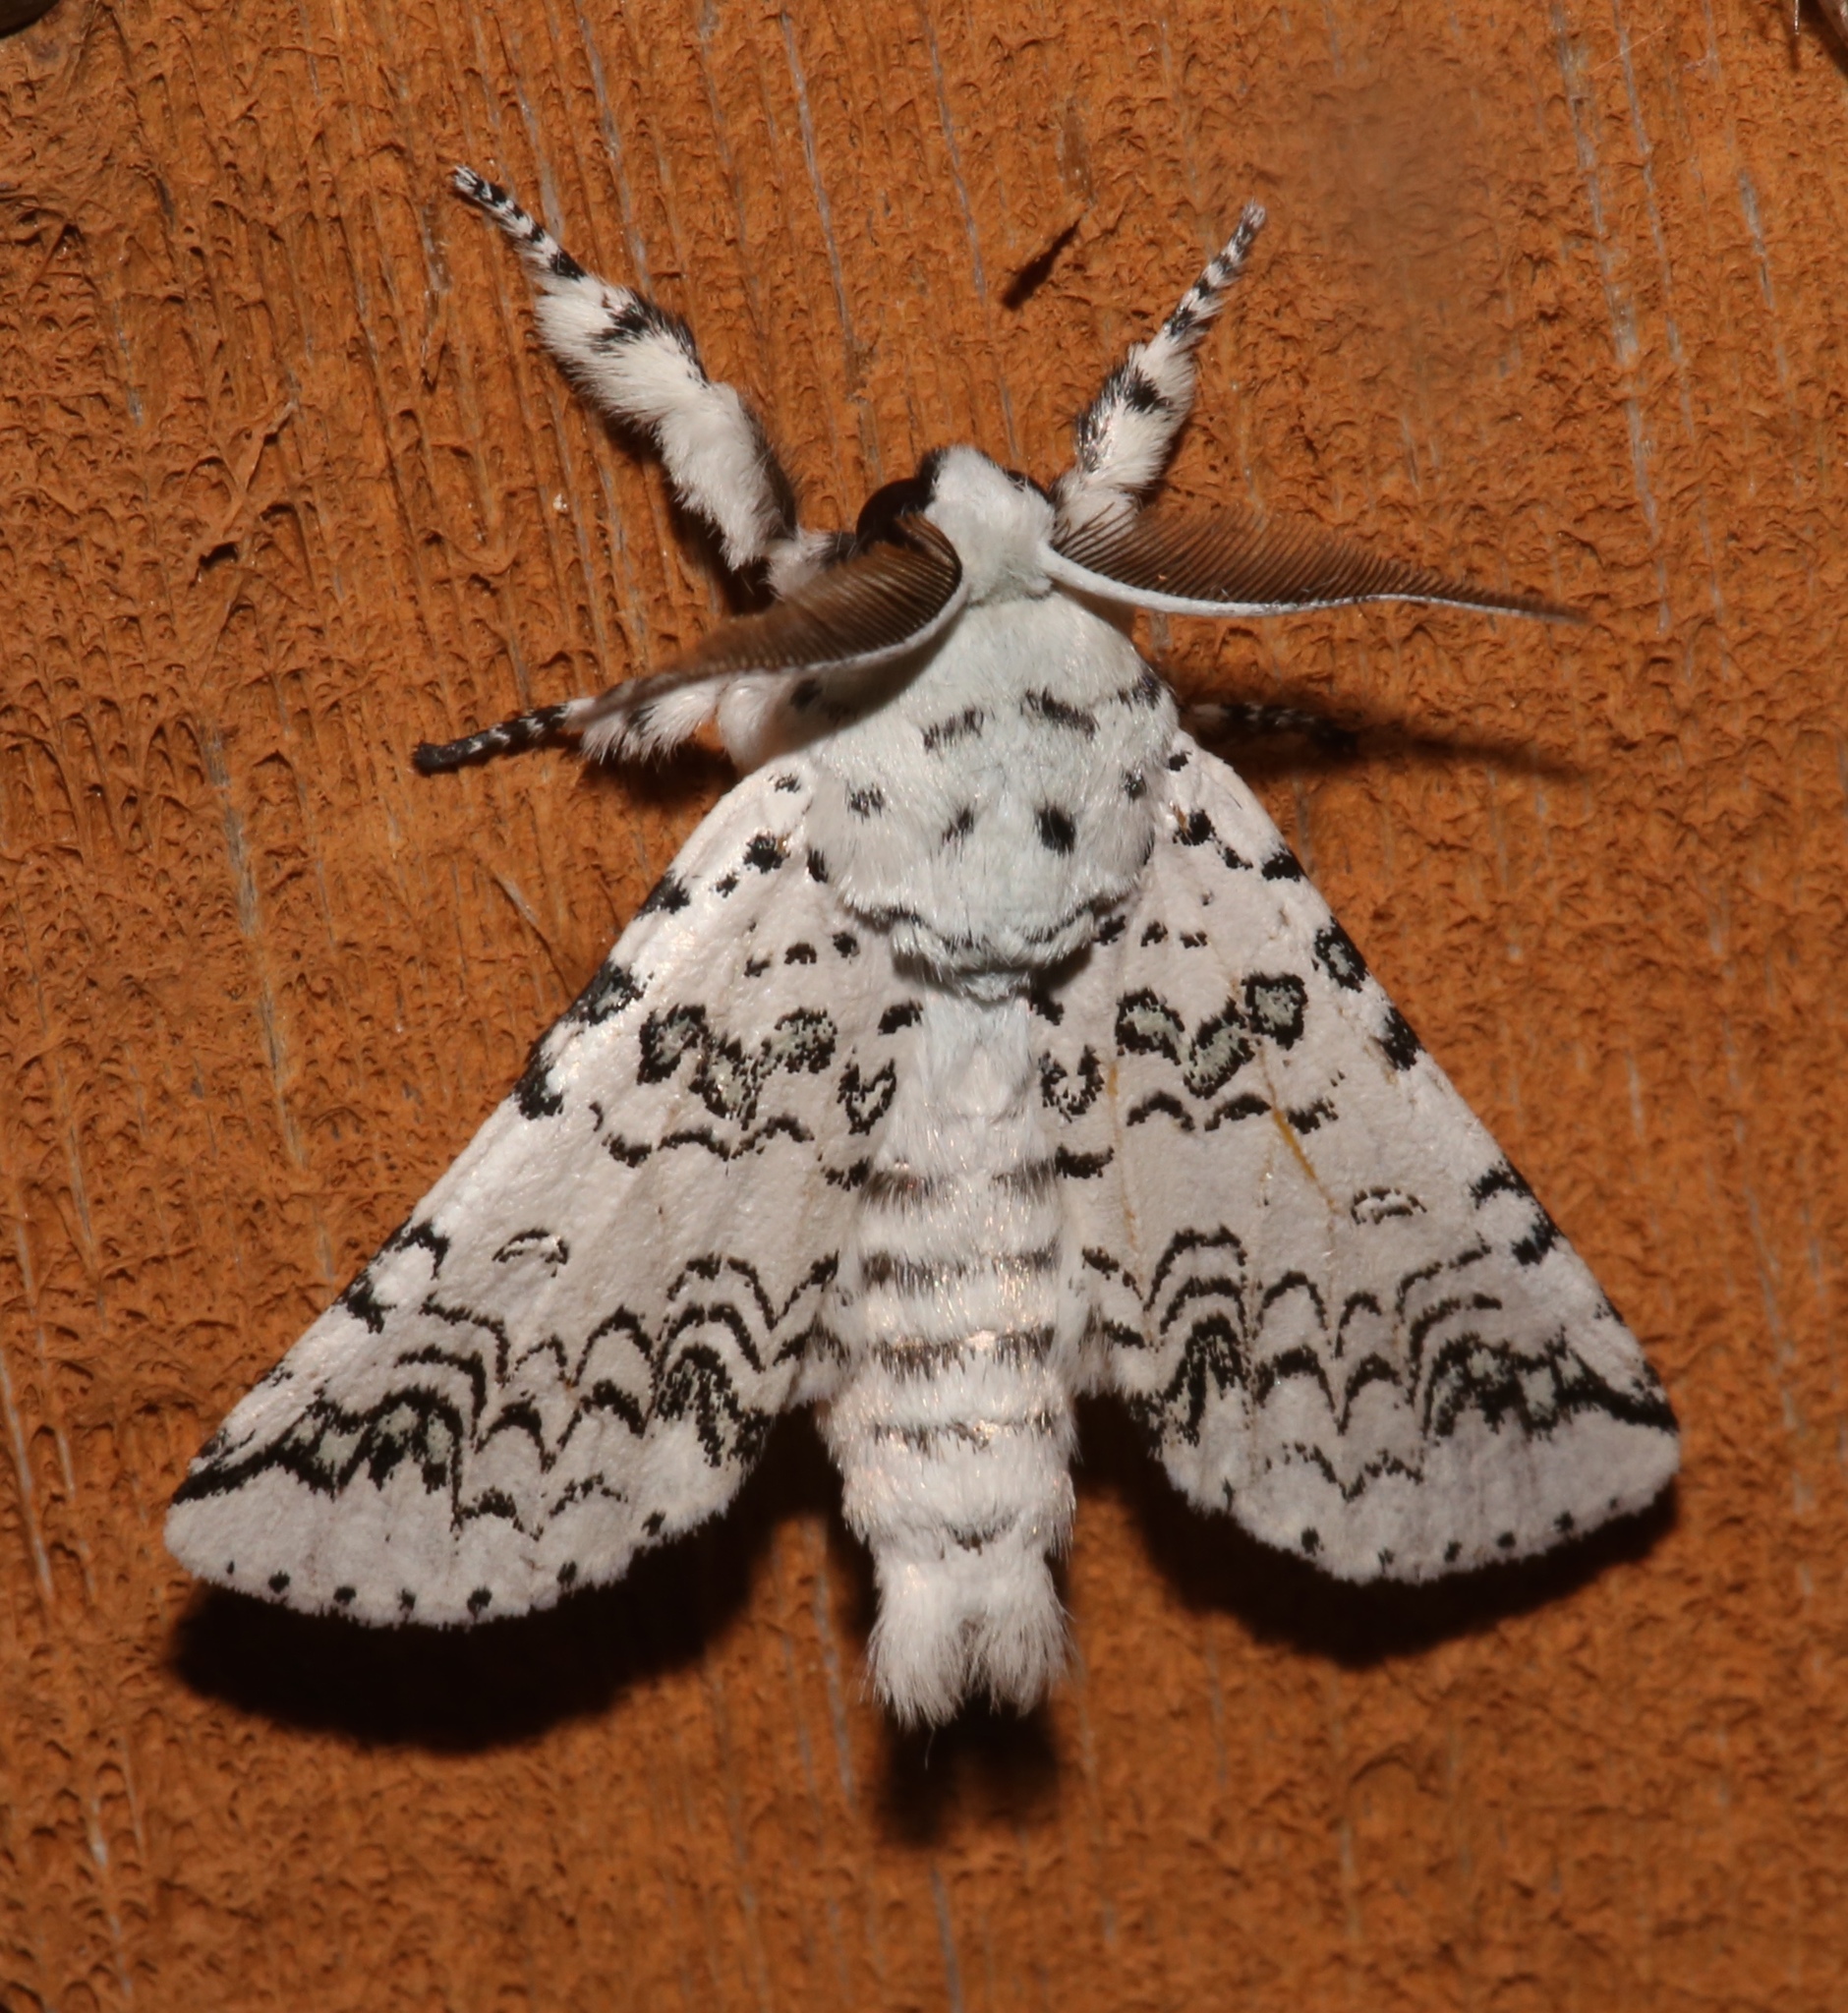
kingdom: Animalia
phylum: Arthropoda
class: Insecta
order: Lepidoptera
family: Notodontidae
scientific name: Notodontidae
